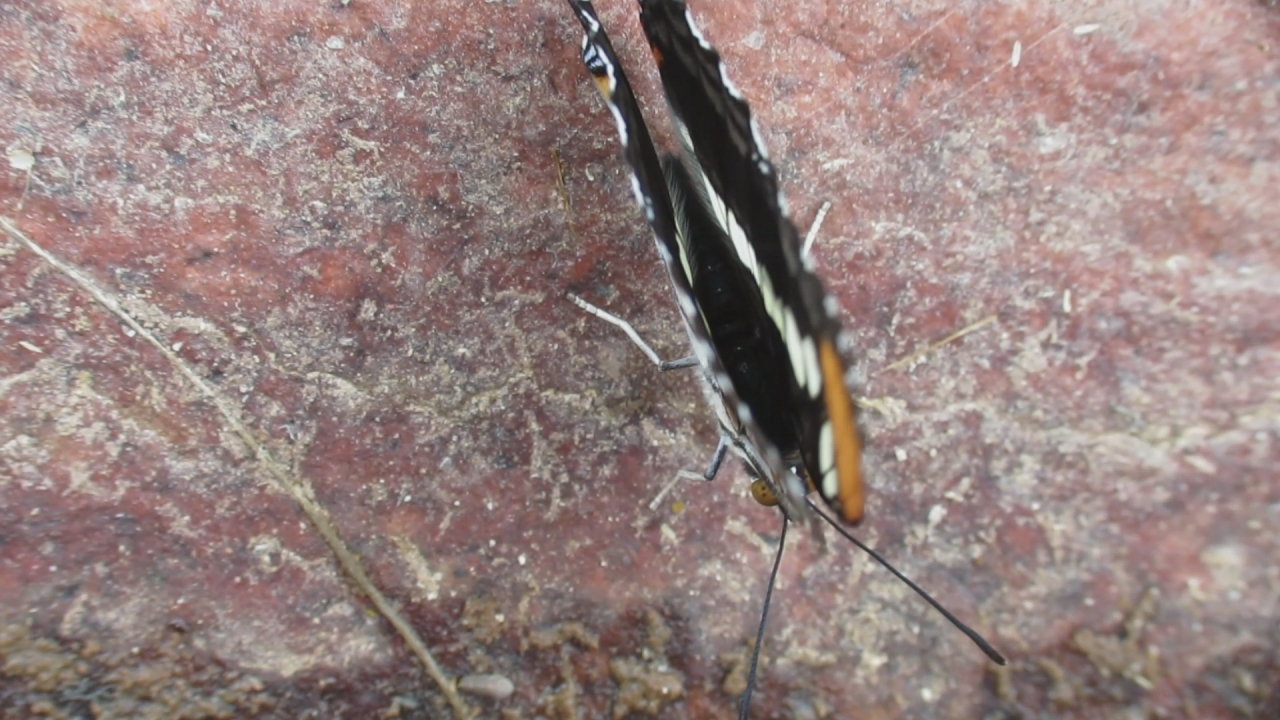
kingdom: Animalia
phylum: Arthropoda
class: Insecta
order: Lepidoptera
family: Nymphalidae
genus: Limenitis
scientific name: Limenitis bredowii
